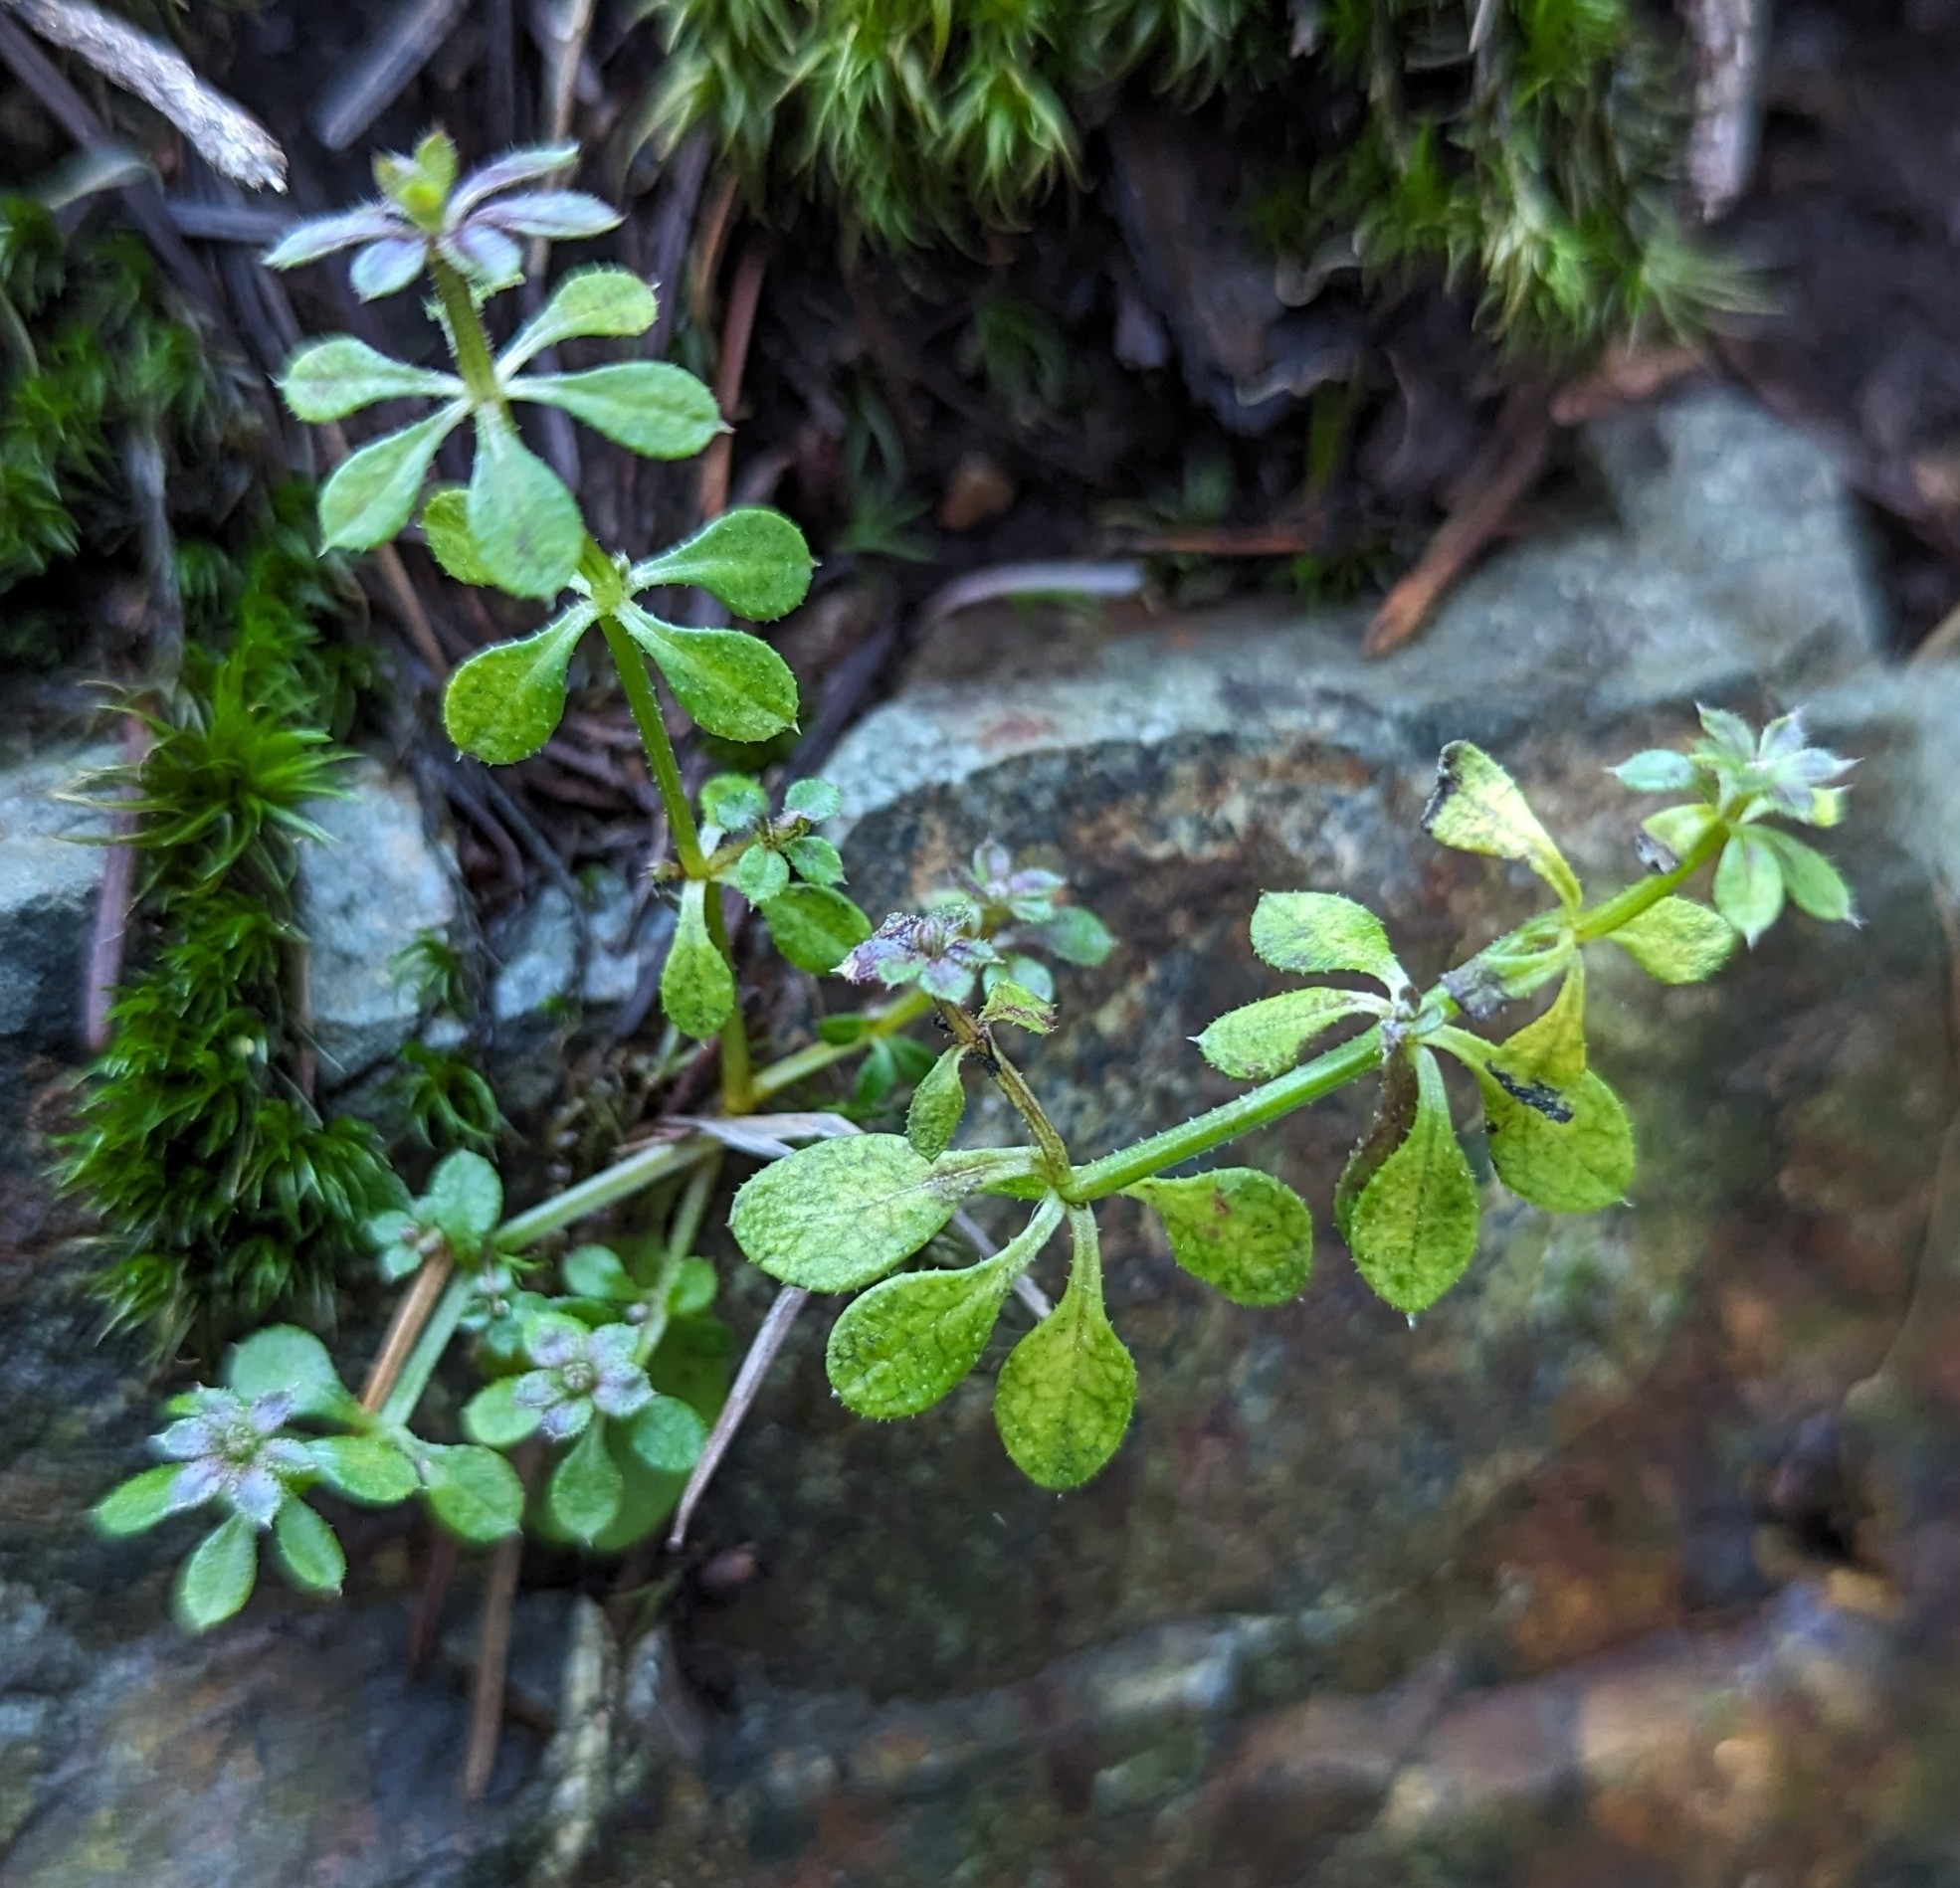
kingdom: Plantae
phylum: Tracheophyta
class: Magnoliopsida
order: Gentianales
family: Rubiaceae
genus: Galium
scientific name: Galium aparine
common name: Cleavers
